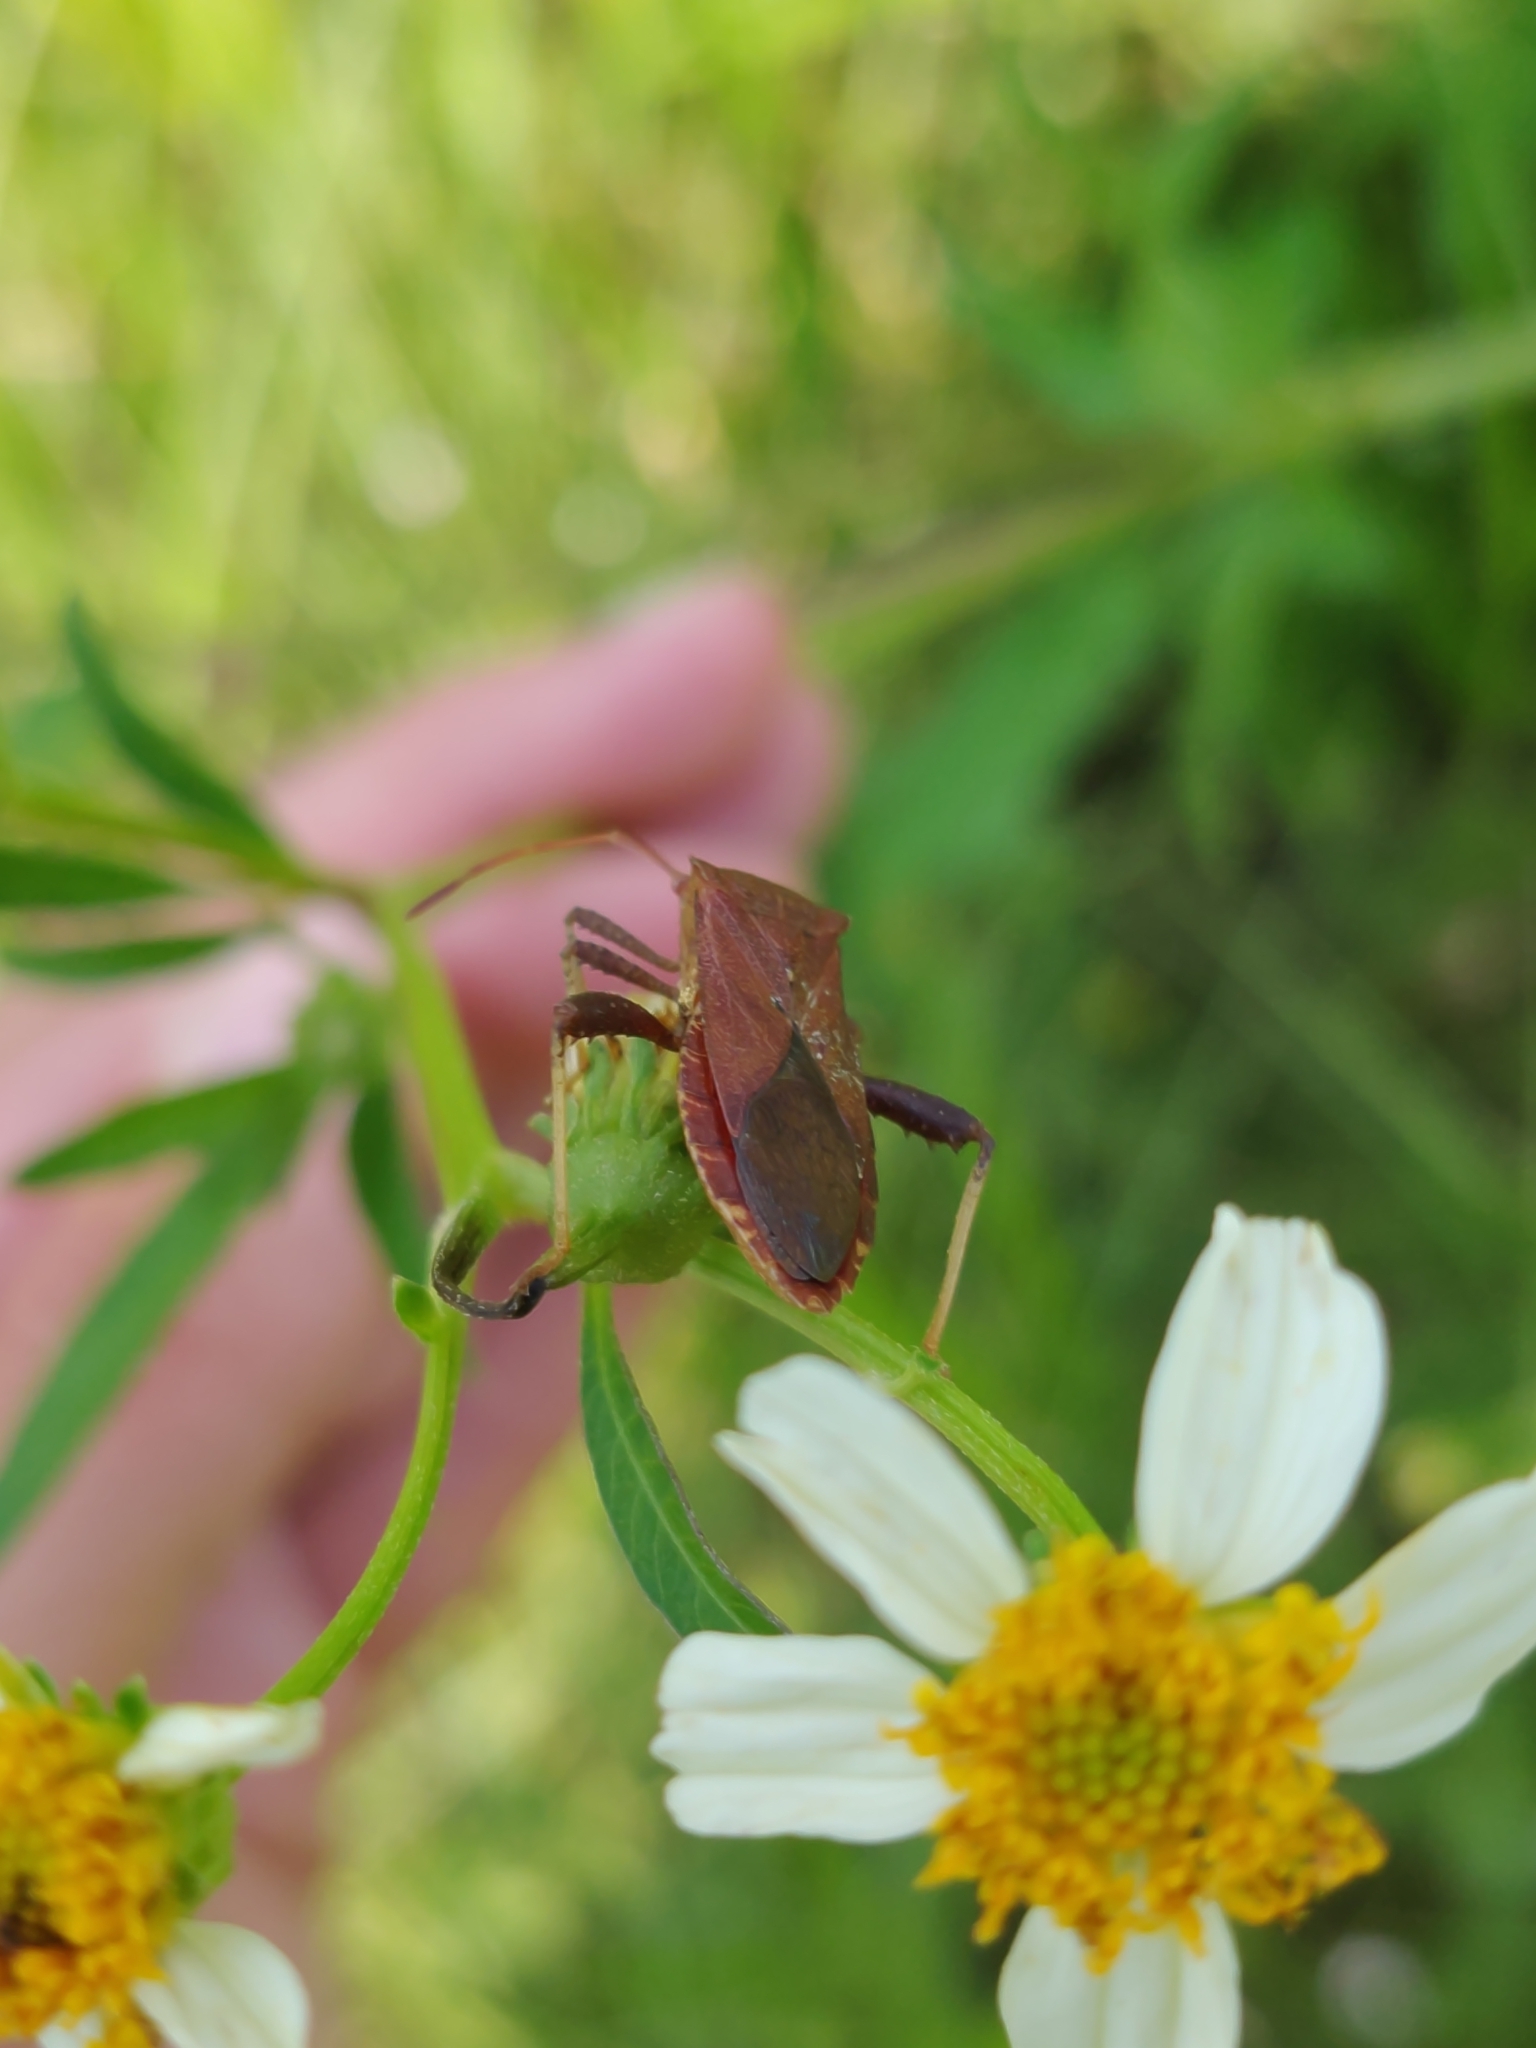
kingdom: Animalia
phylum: Arthropoda
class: Insecta
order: Hemiptera
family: Coreidae
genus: Euthochtha
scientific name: Euthochtha galeator
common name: Helmeted squash bug
